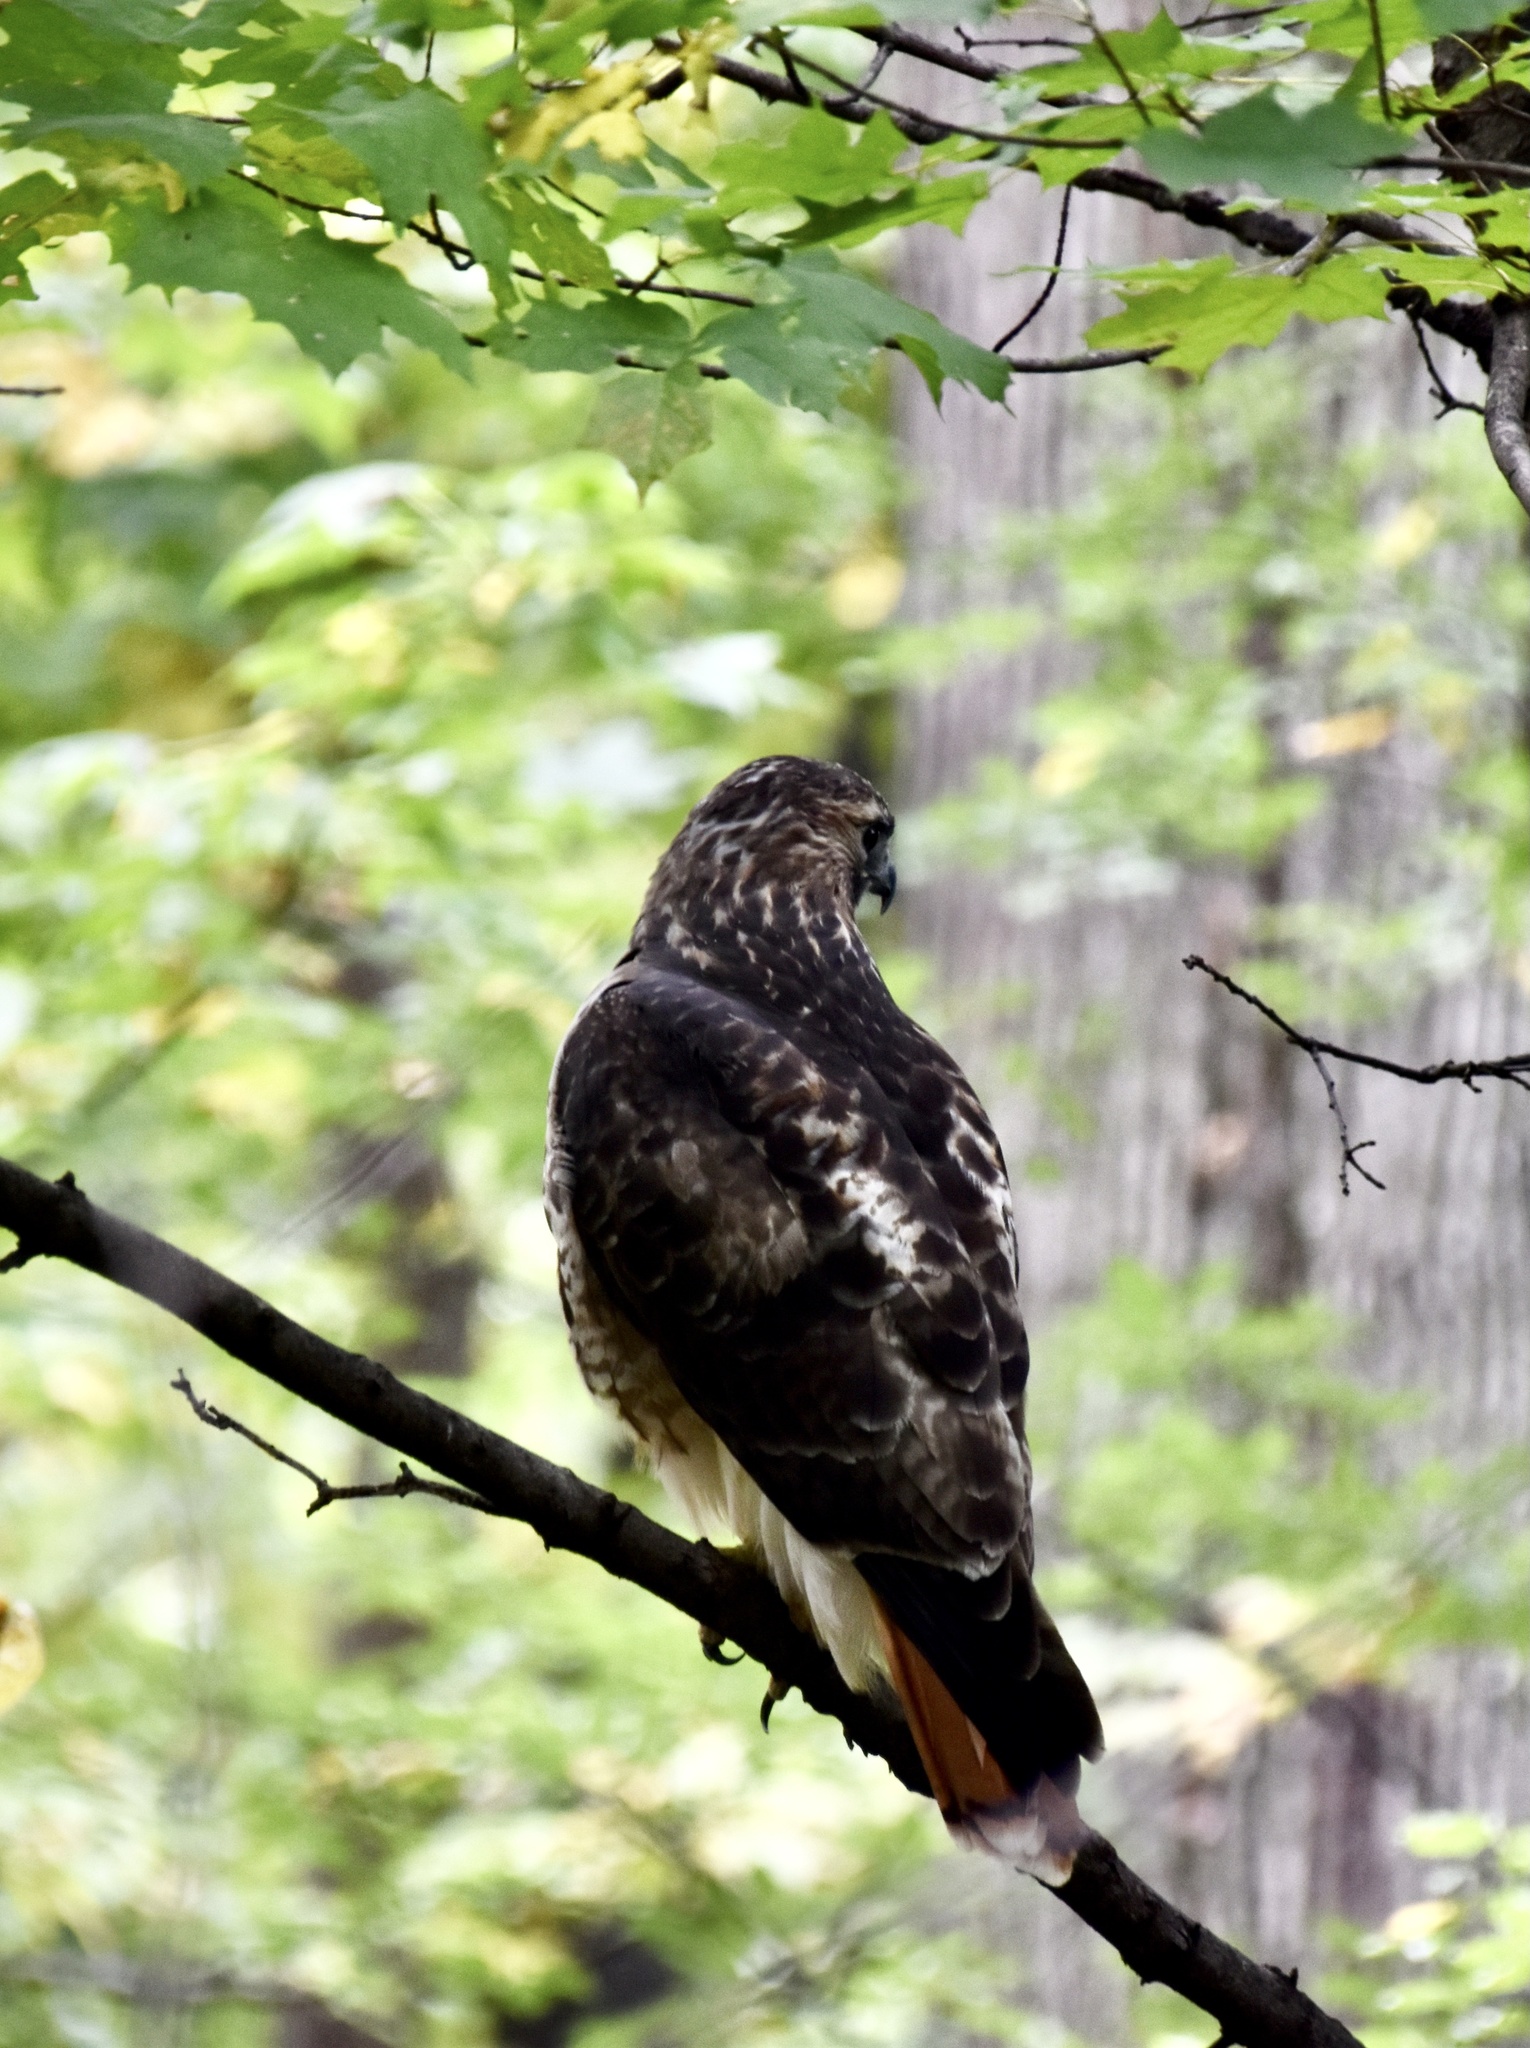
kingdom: Animalia
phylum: Chordata
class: Aves
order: Accipitriformes
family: Accipitridae
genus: Buteo
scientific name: Buteo jamaicensis
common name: Red-tailed hawk
